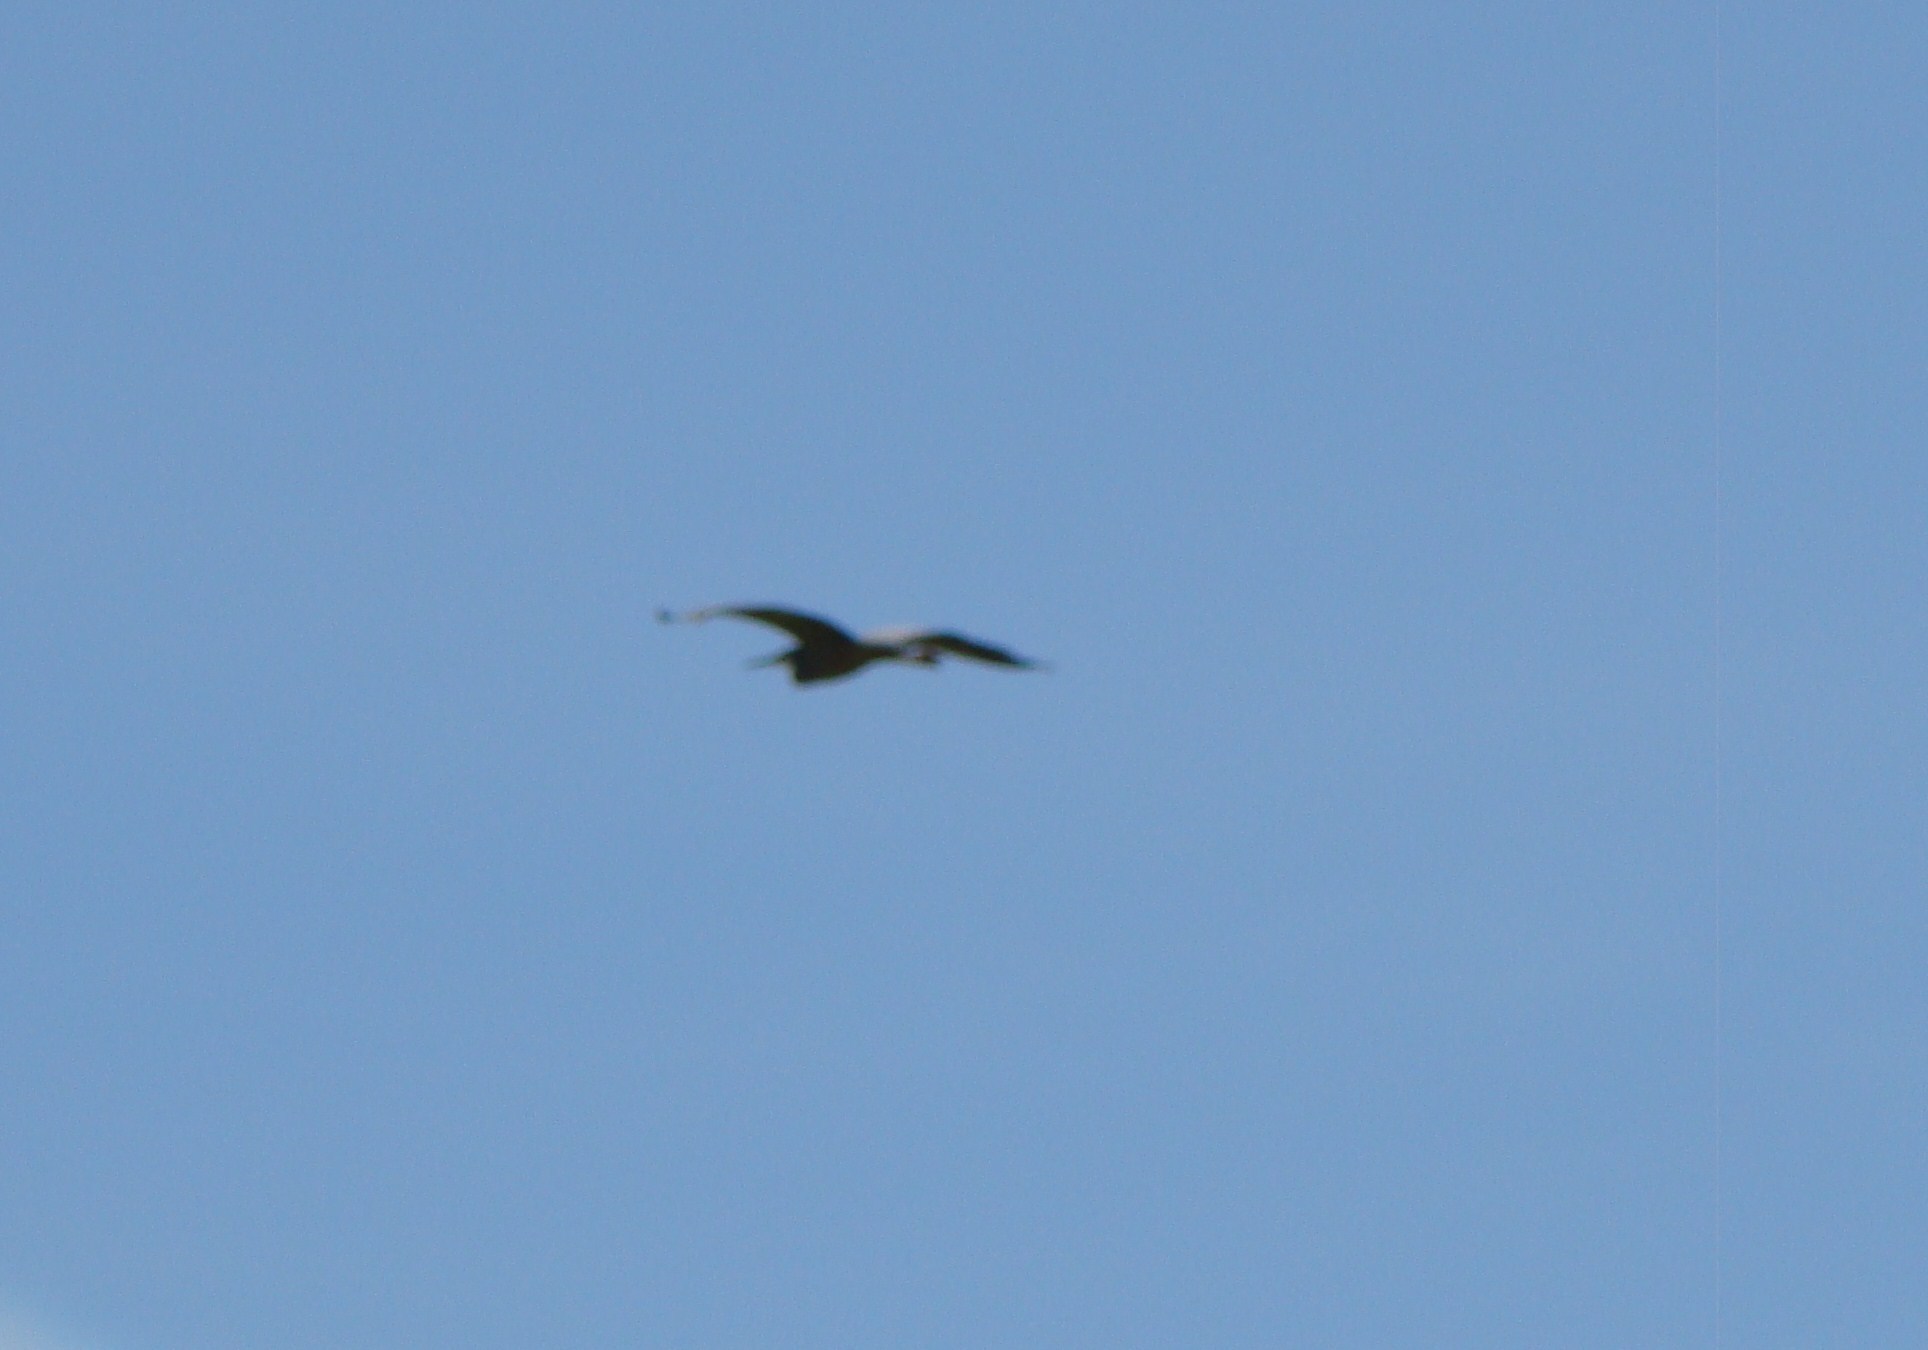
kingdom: Animalia
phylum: Chordata
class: Aves
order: Pelecaniformes
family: Ardeidae
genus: Botaurus
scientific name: Botaurus poiciloptilus
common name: Australasian bittern
